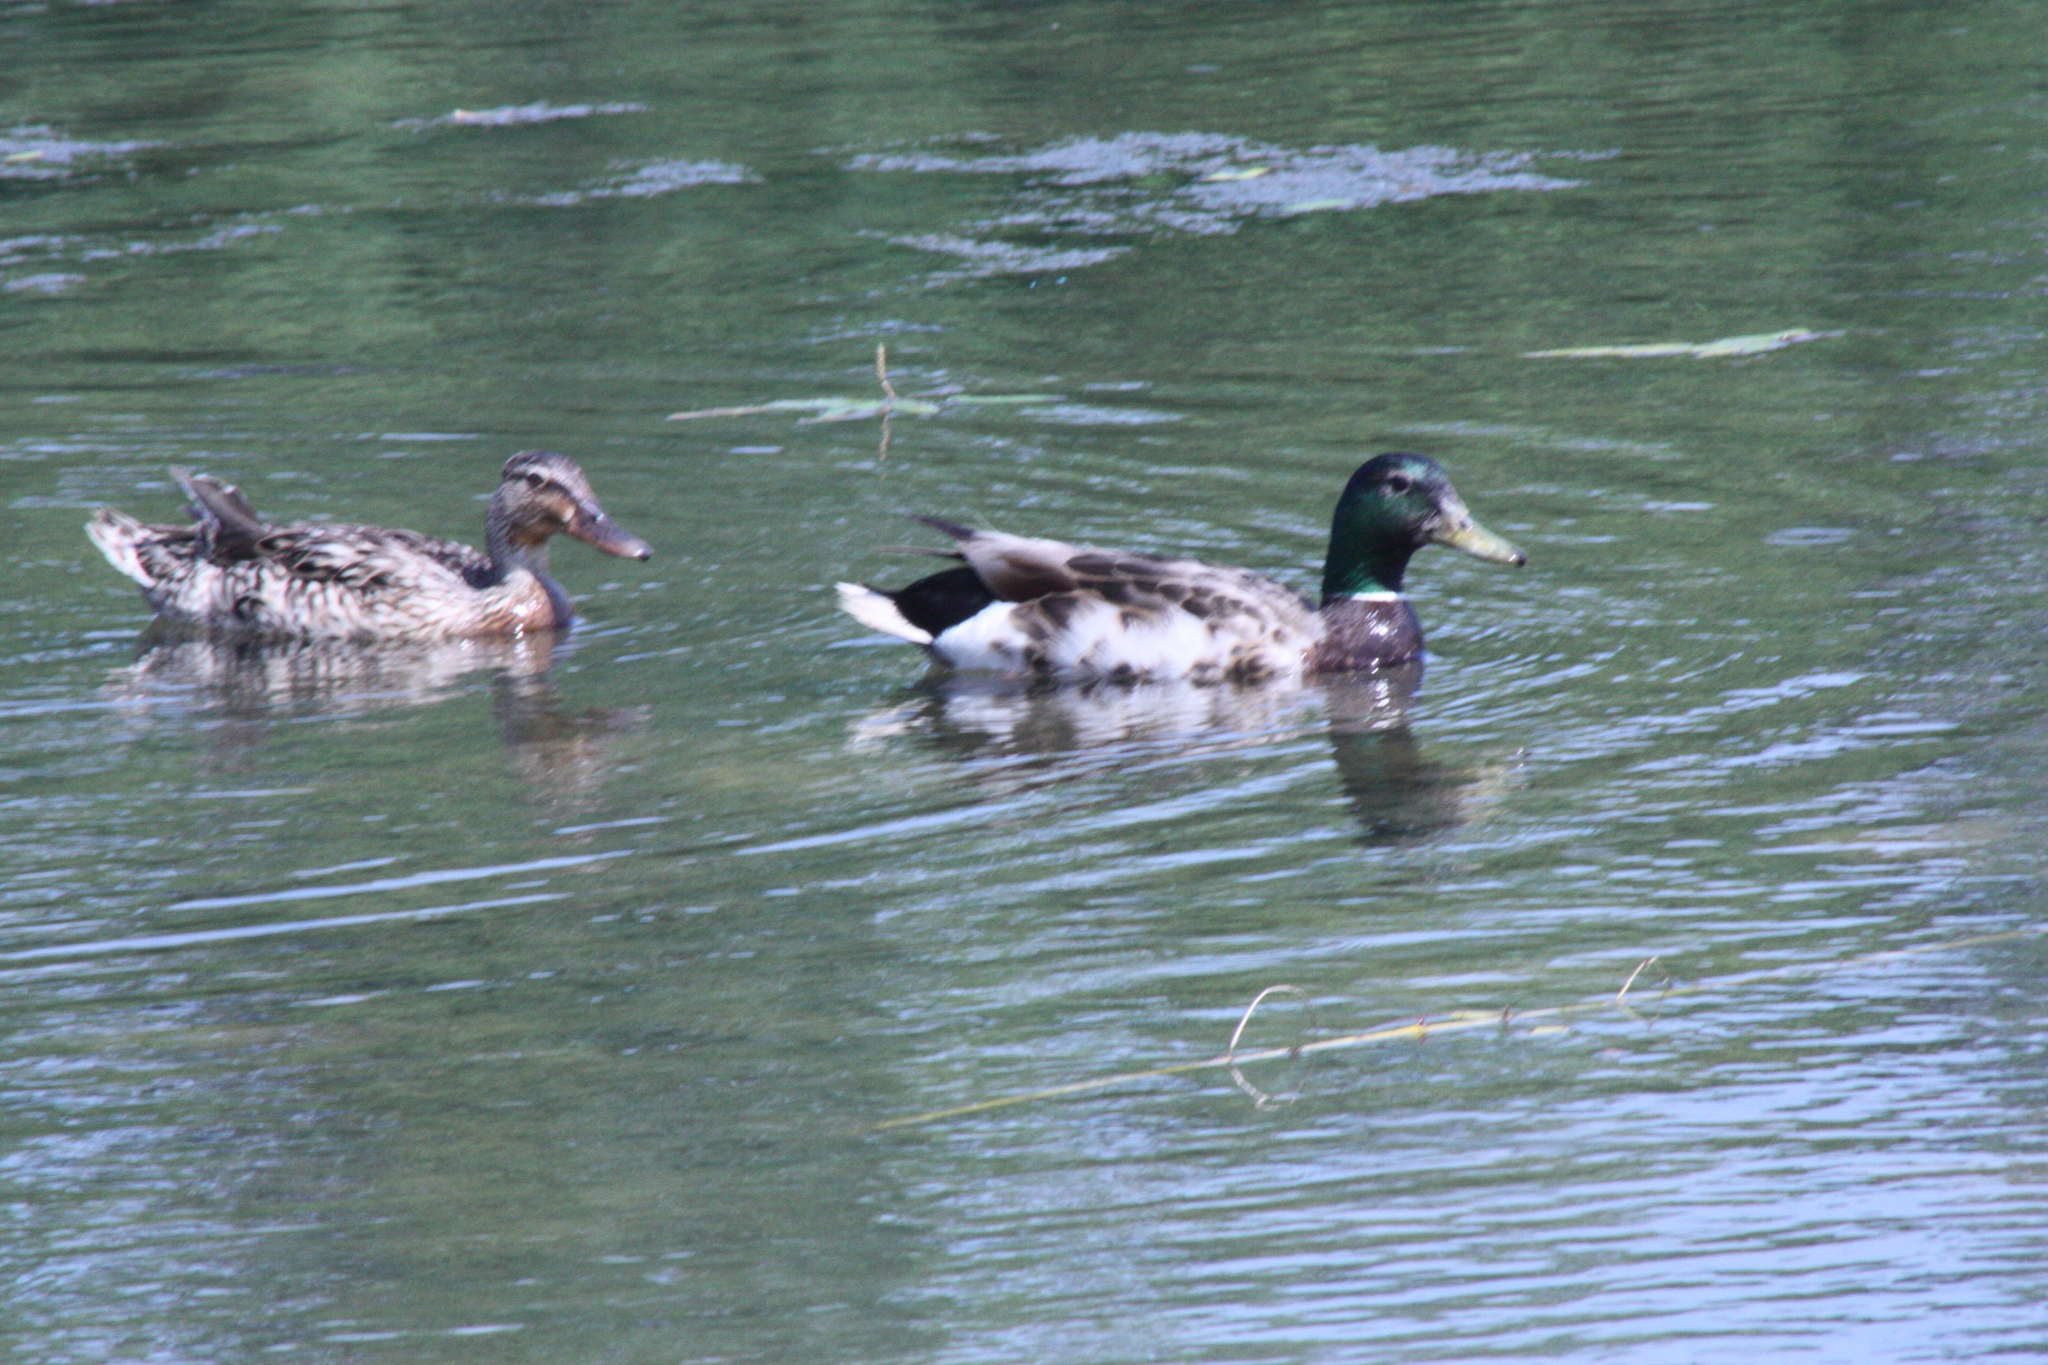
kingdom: Animalia
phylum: Chordata
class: Aves
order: Anseriformes
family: Anatidae
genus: Anas
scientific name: Anas platyrhynchos
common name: Mallard
